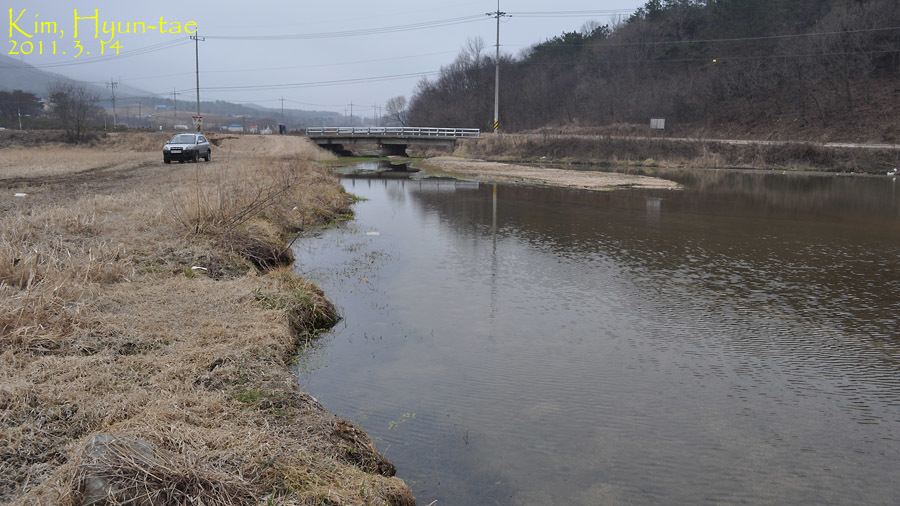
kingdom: Animalia
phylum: Chordata
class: Amphibia
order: Anura
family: Bufonidae
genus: Bufo
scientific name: Bufo gargarizans
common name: Asiatic toad
